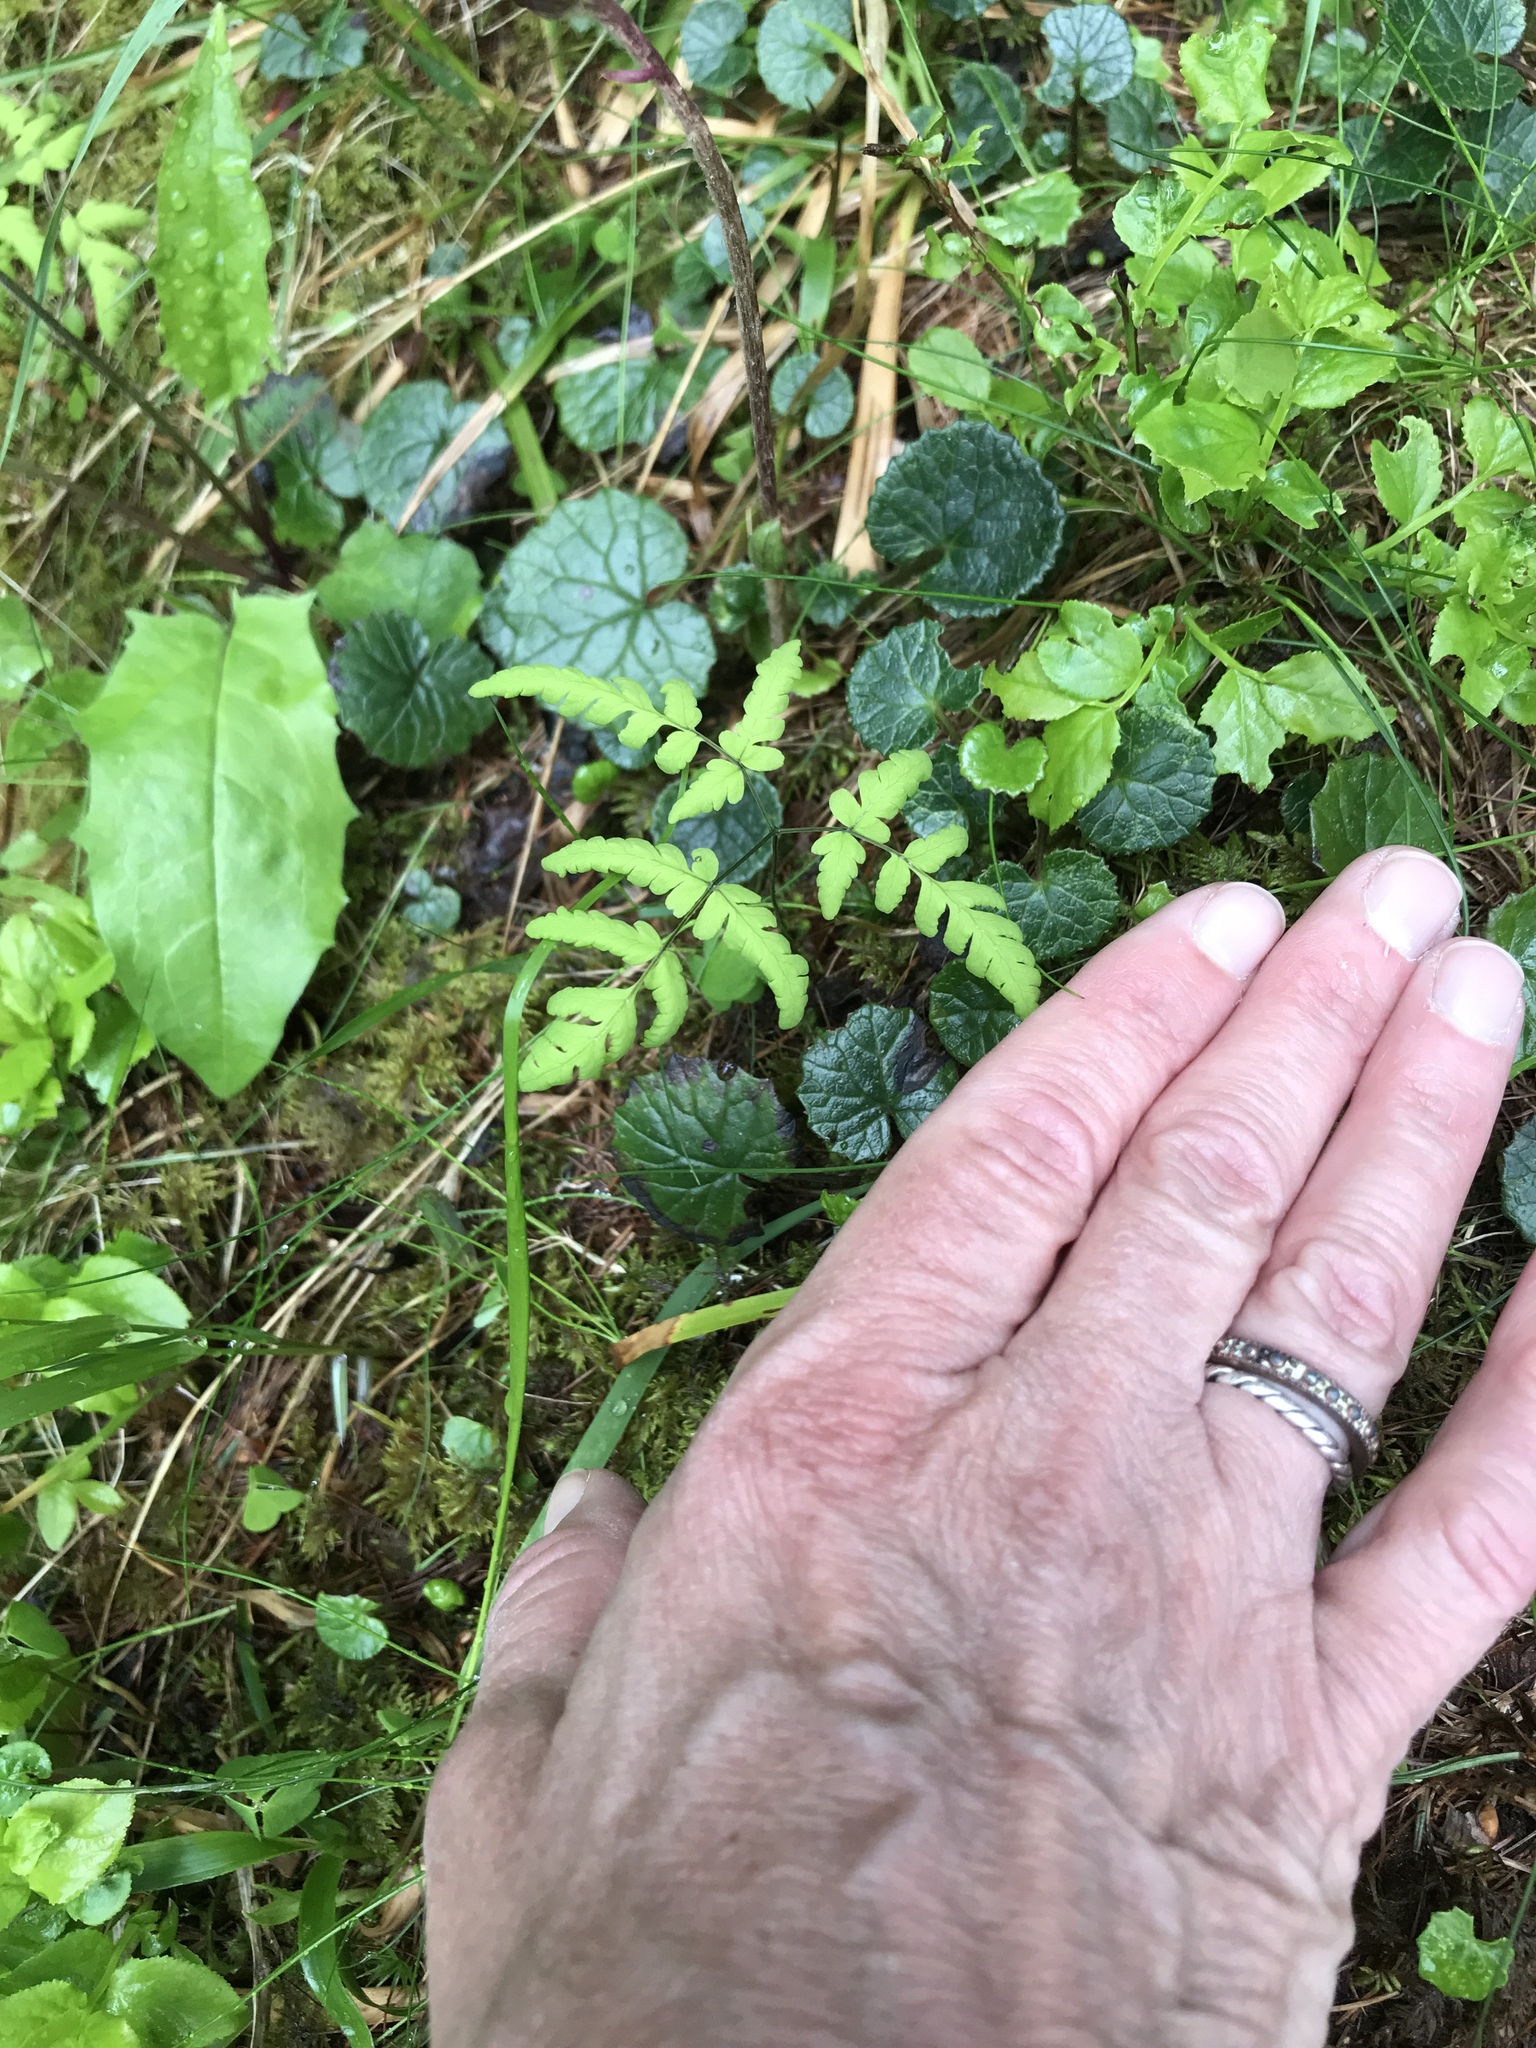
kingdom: Plantae
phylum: Tracheophyta
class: Polypodiopsida
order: Polypodiales
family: Cystopteridaceae
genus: Gymnocarpium
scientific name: Gymnocarpium dryopteris
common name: Oak fern
